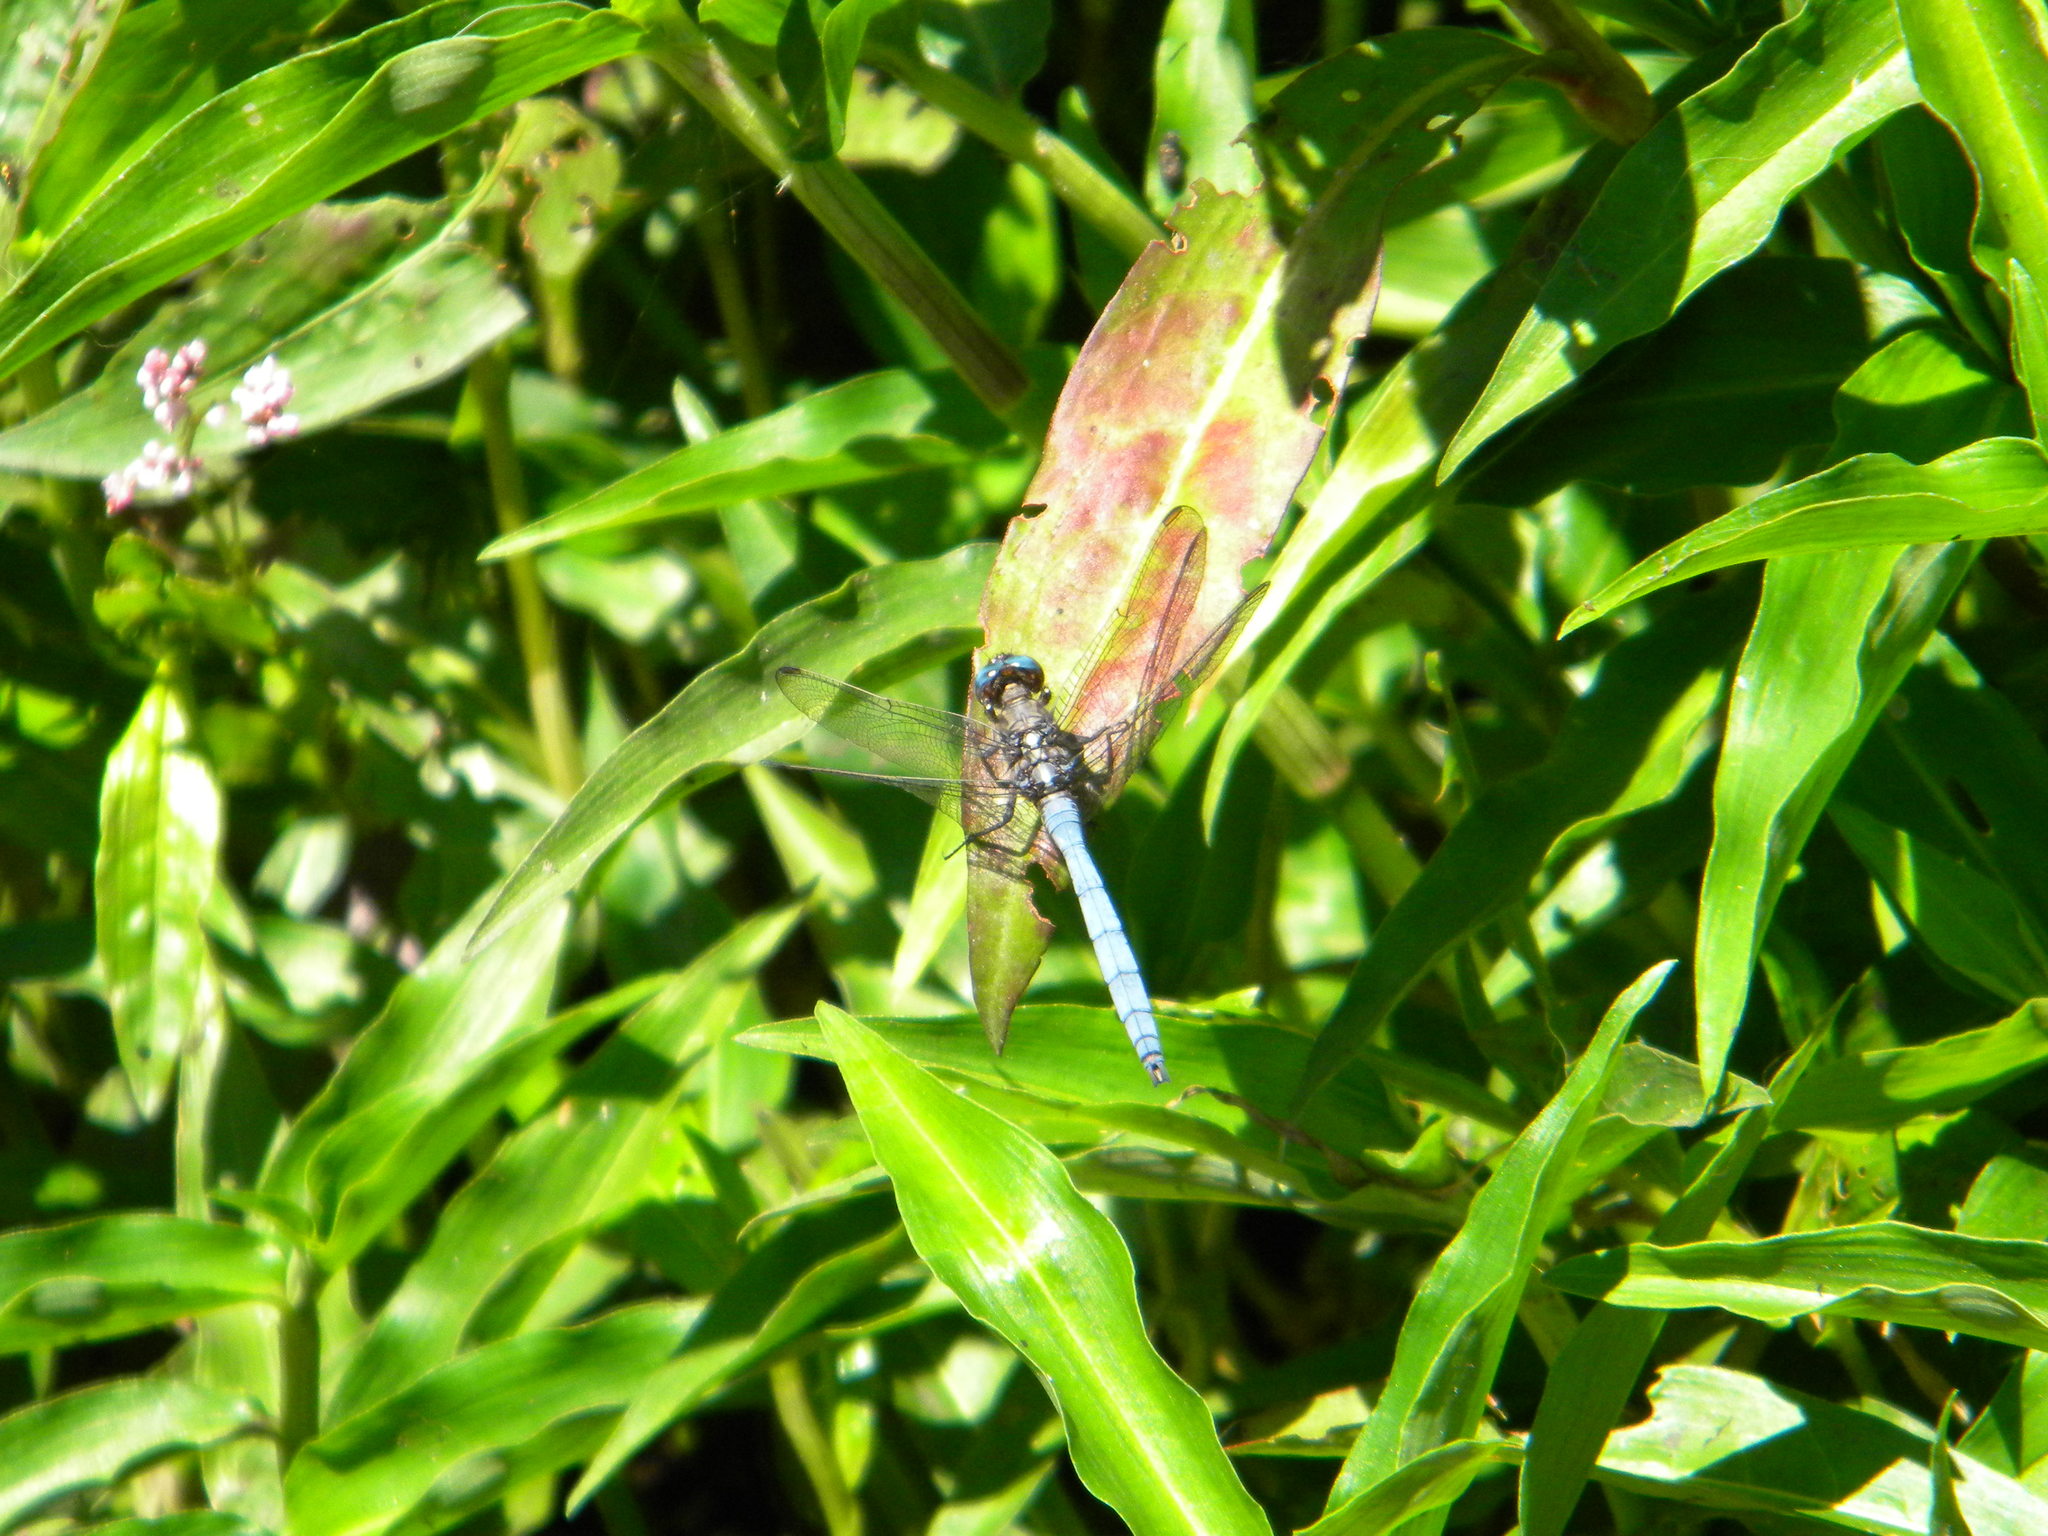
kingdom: Animalia
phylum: Arthropoda
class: Insecta
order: Odonata
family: Libellulidae
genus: Orthetrum
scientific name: Orthetrum julia
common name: Julia skimmer
